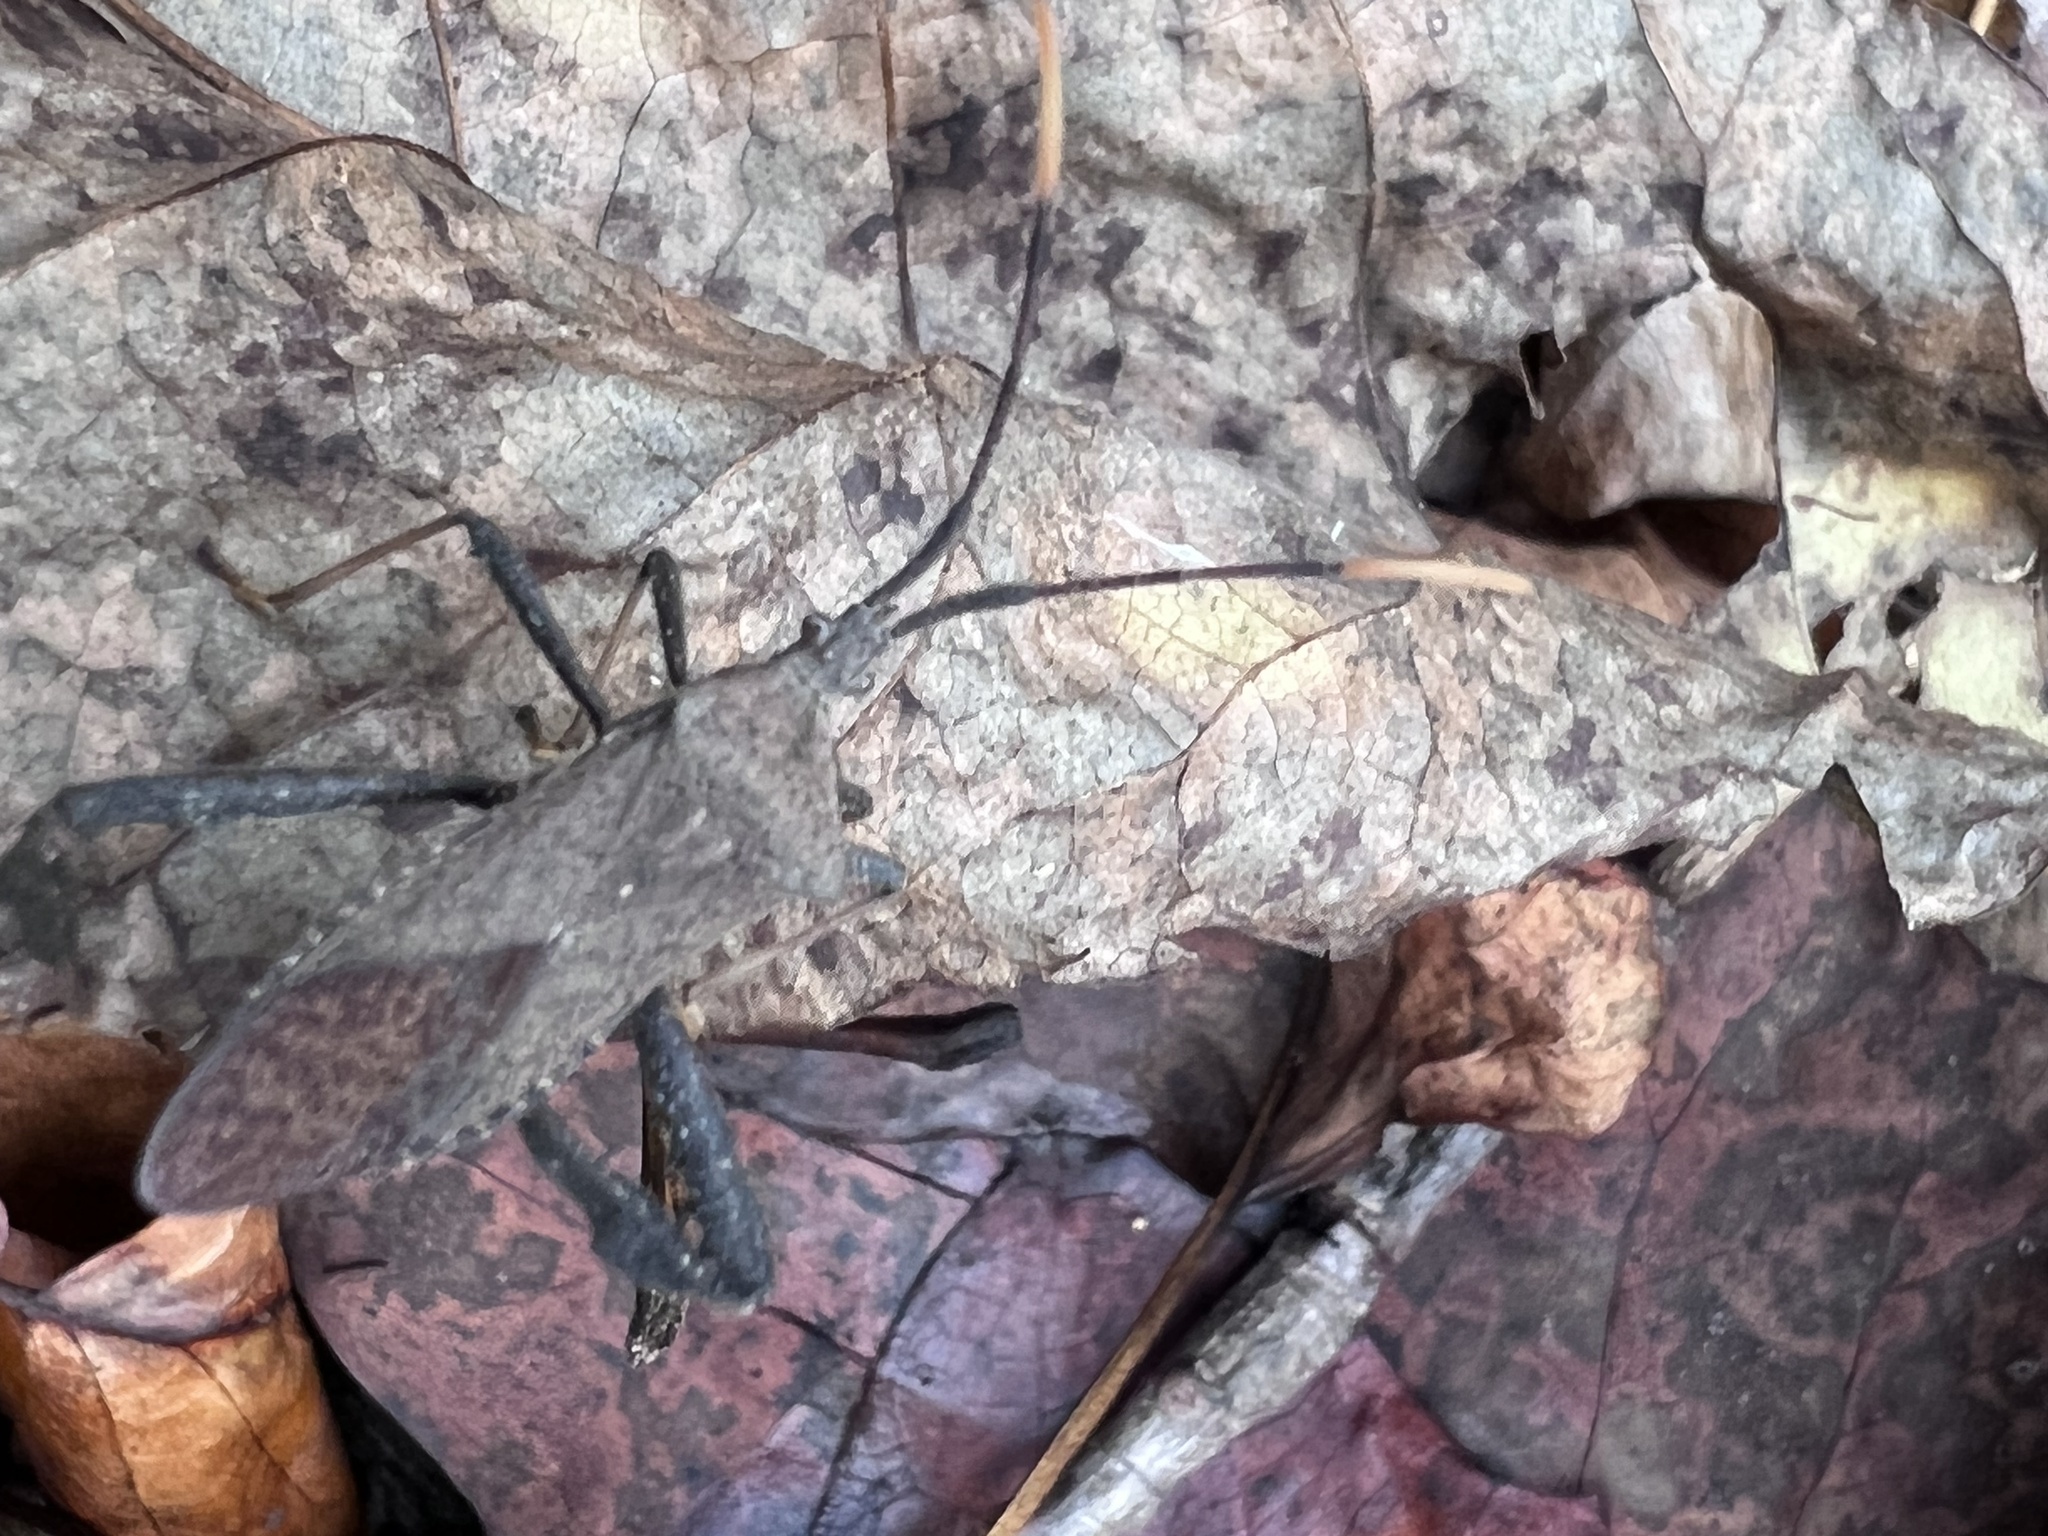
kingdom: Animalia
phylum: Arthropoda
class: Insecta
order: Hemiptera
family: Coreidae
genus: Acanthocephala
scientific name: Acanthocephala terminalis
